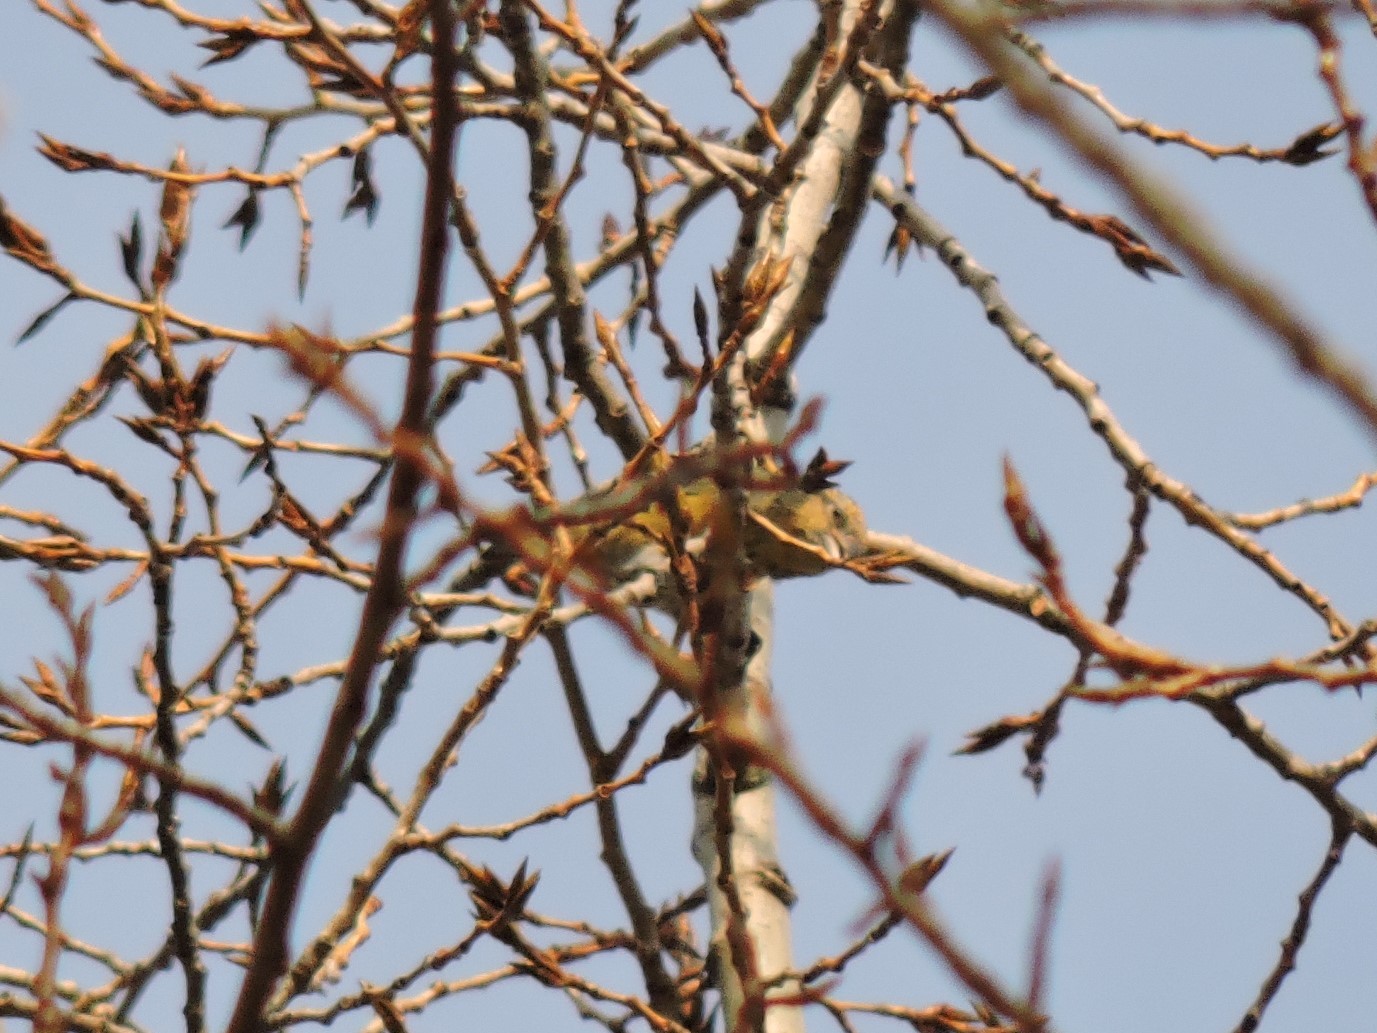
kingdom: Animalia
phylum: Chordata
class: Aves
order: Passeriformes
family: Fringillidae
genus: Loxia
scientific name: Loxia curvirostra
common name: Red crossbill
